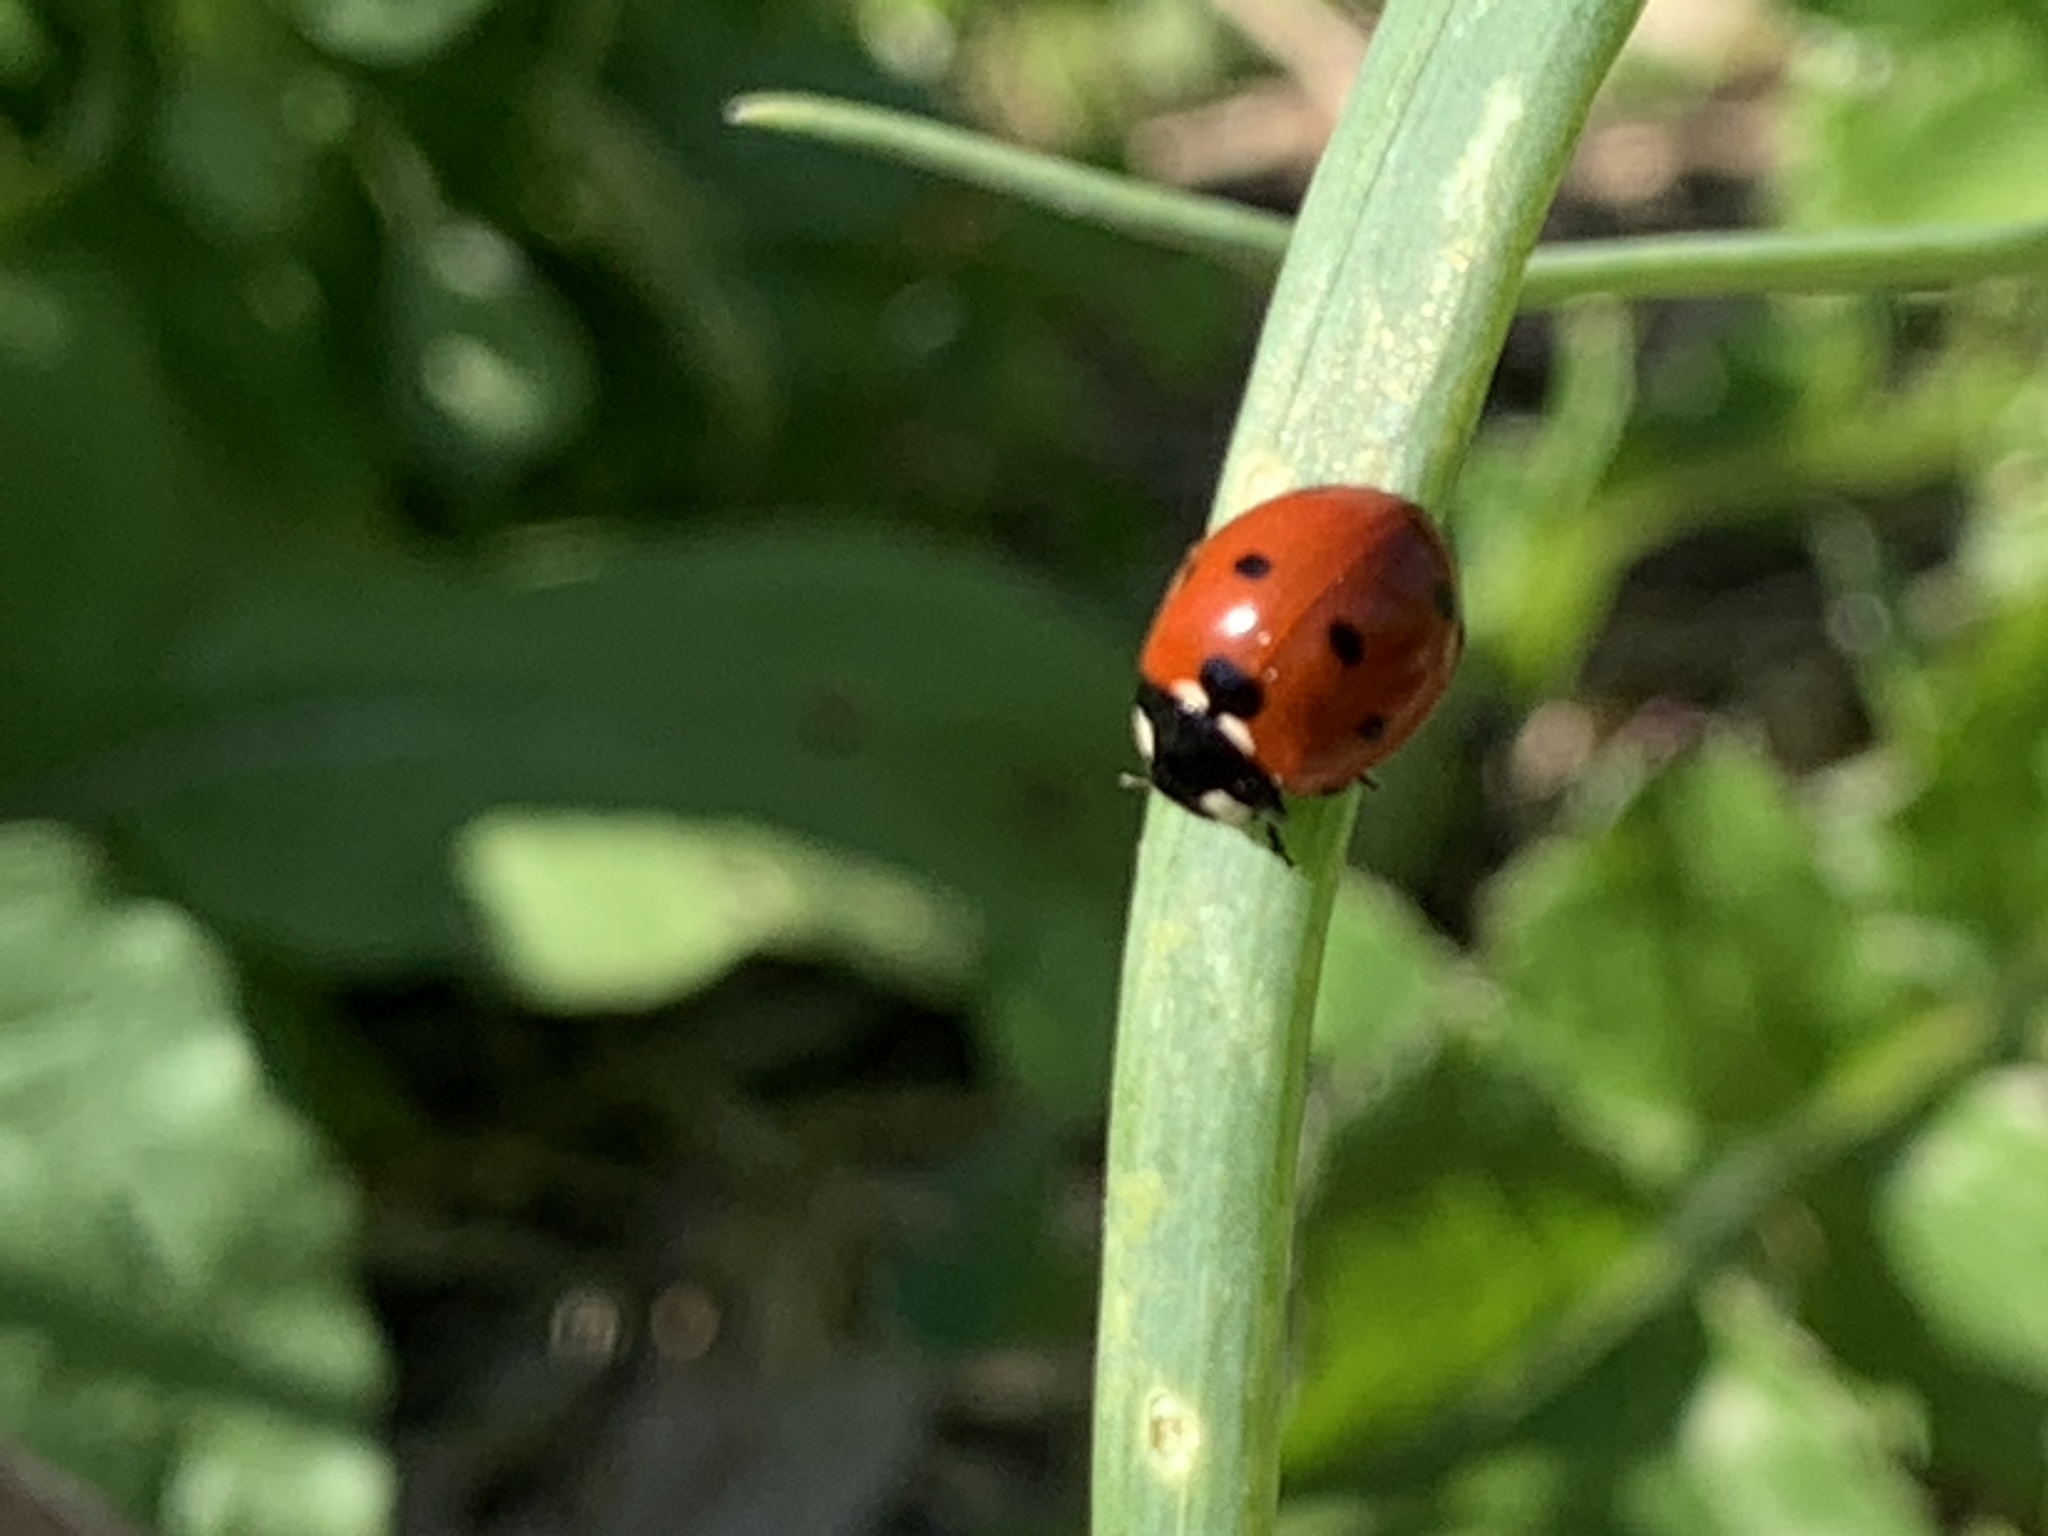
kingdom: Animalia
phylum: Arthropoda
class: Insecta
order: Coleoptera
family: Coccinellidae
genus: Coccinella
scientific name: Coccinella septempunctata
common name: Sevenspotted lady beetle
